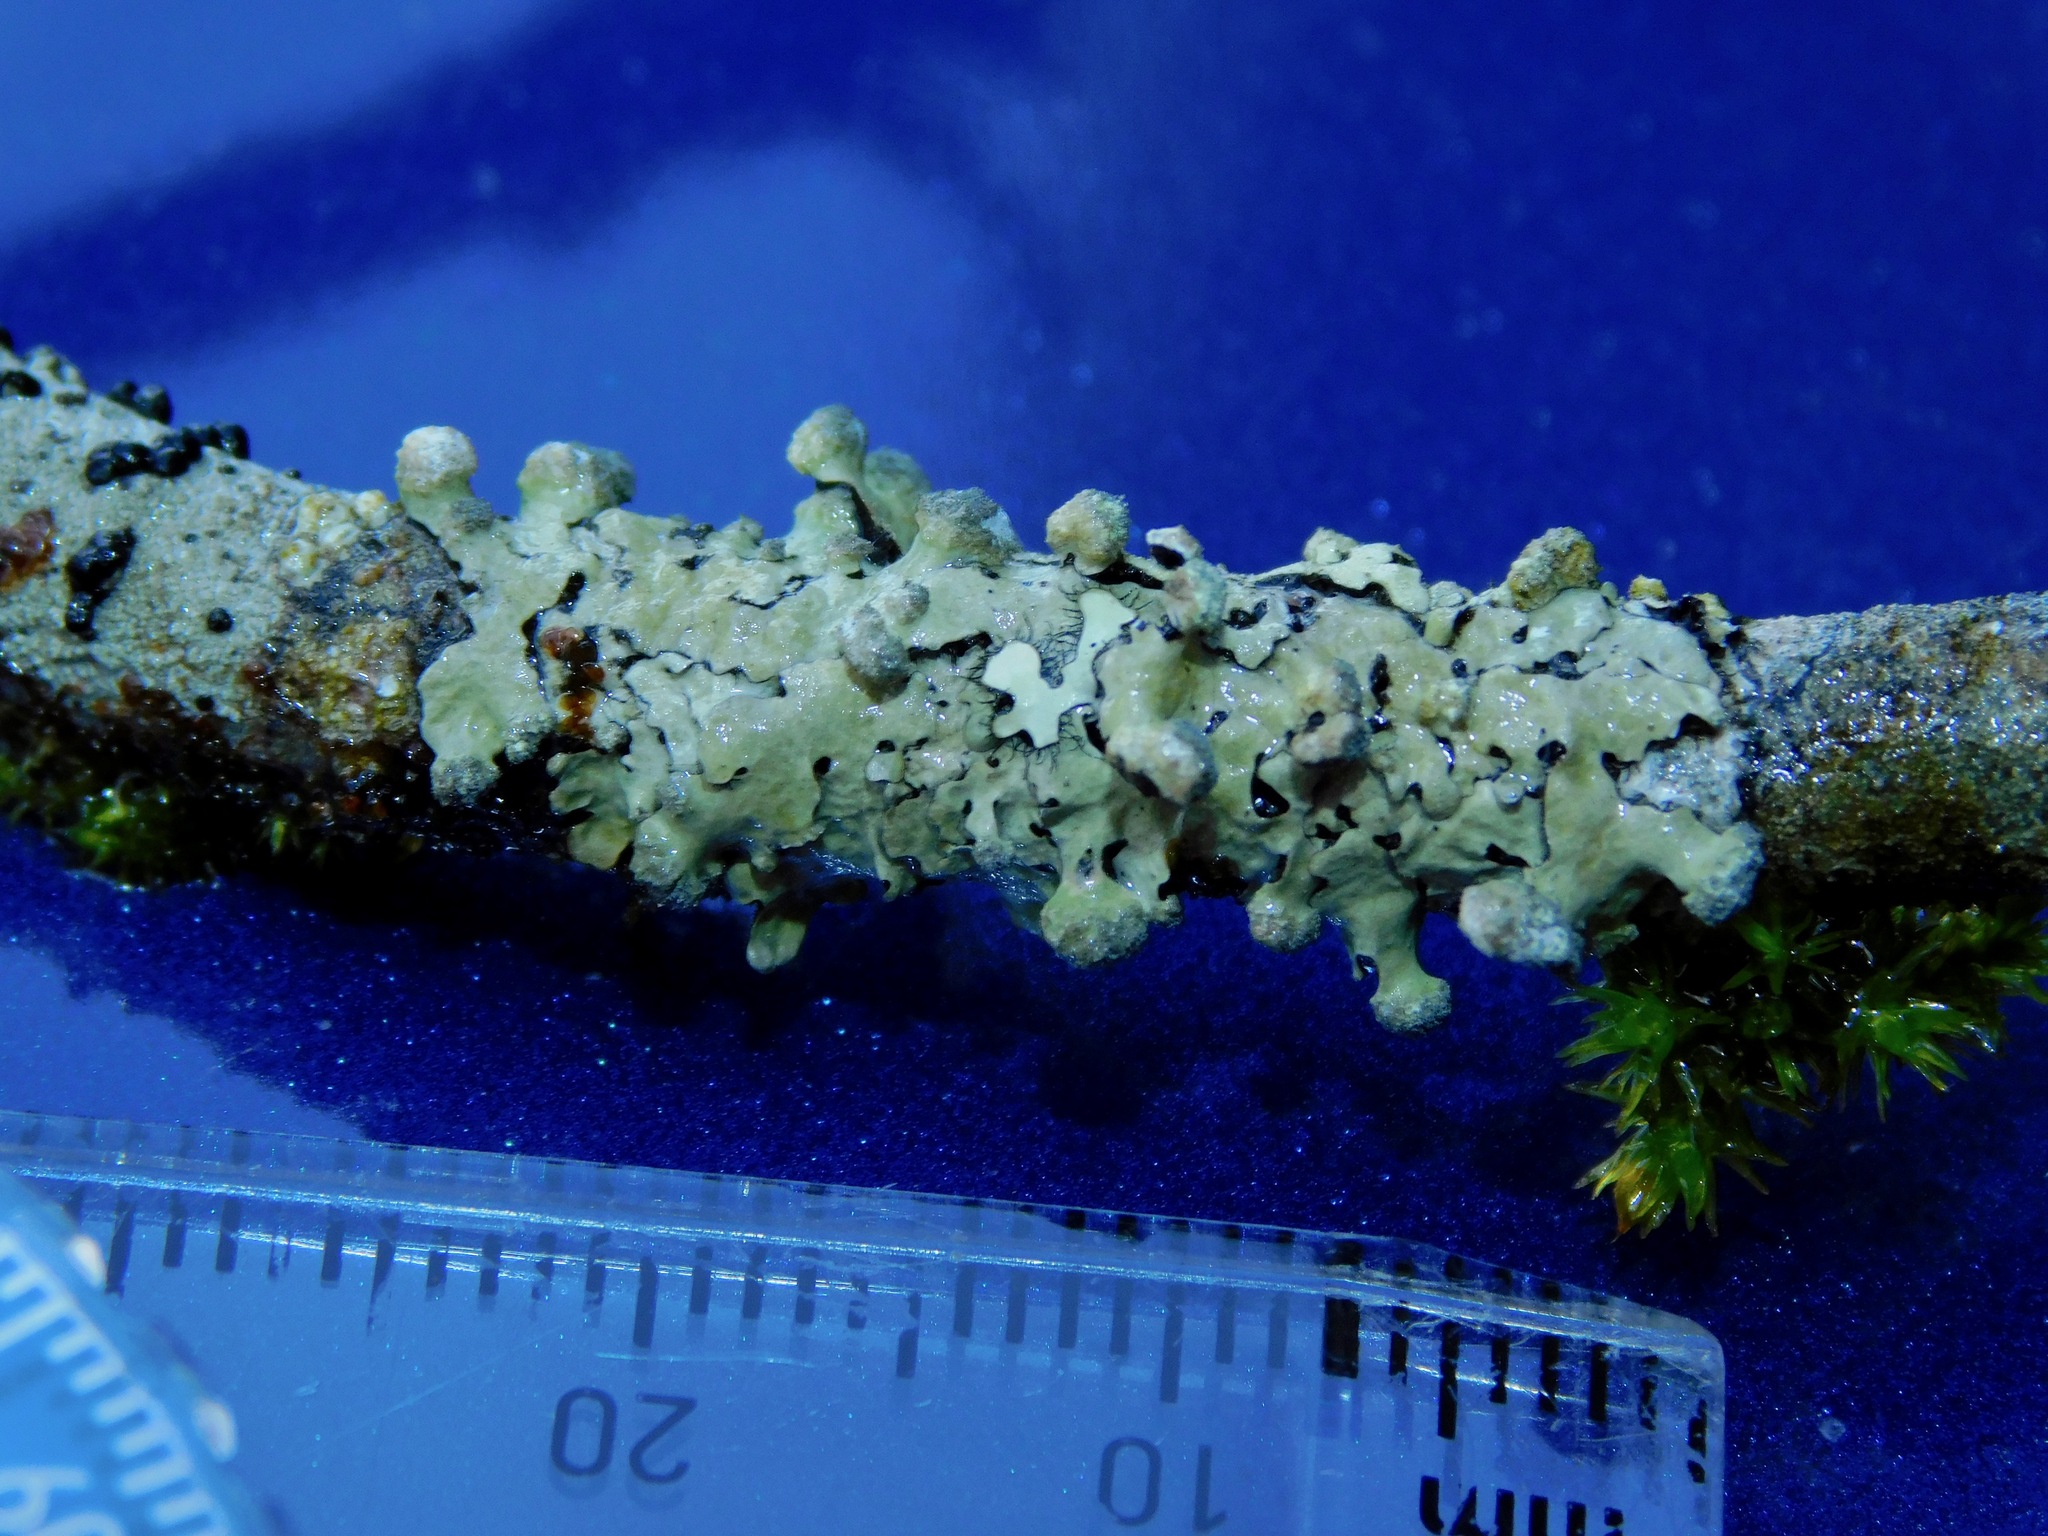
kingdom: Fungi
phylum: Ascomycota
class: Lecanoromycetes
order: Lecanorales
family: Parmeliaceae
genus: Myelochroa
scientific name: Myelochroa metarevoluta
